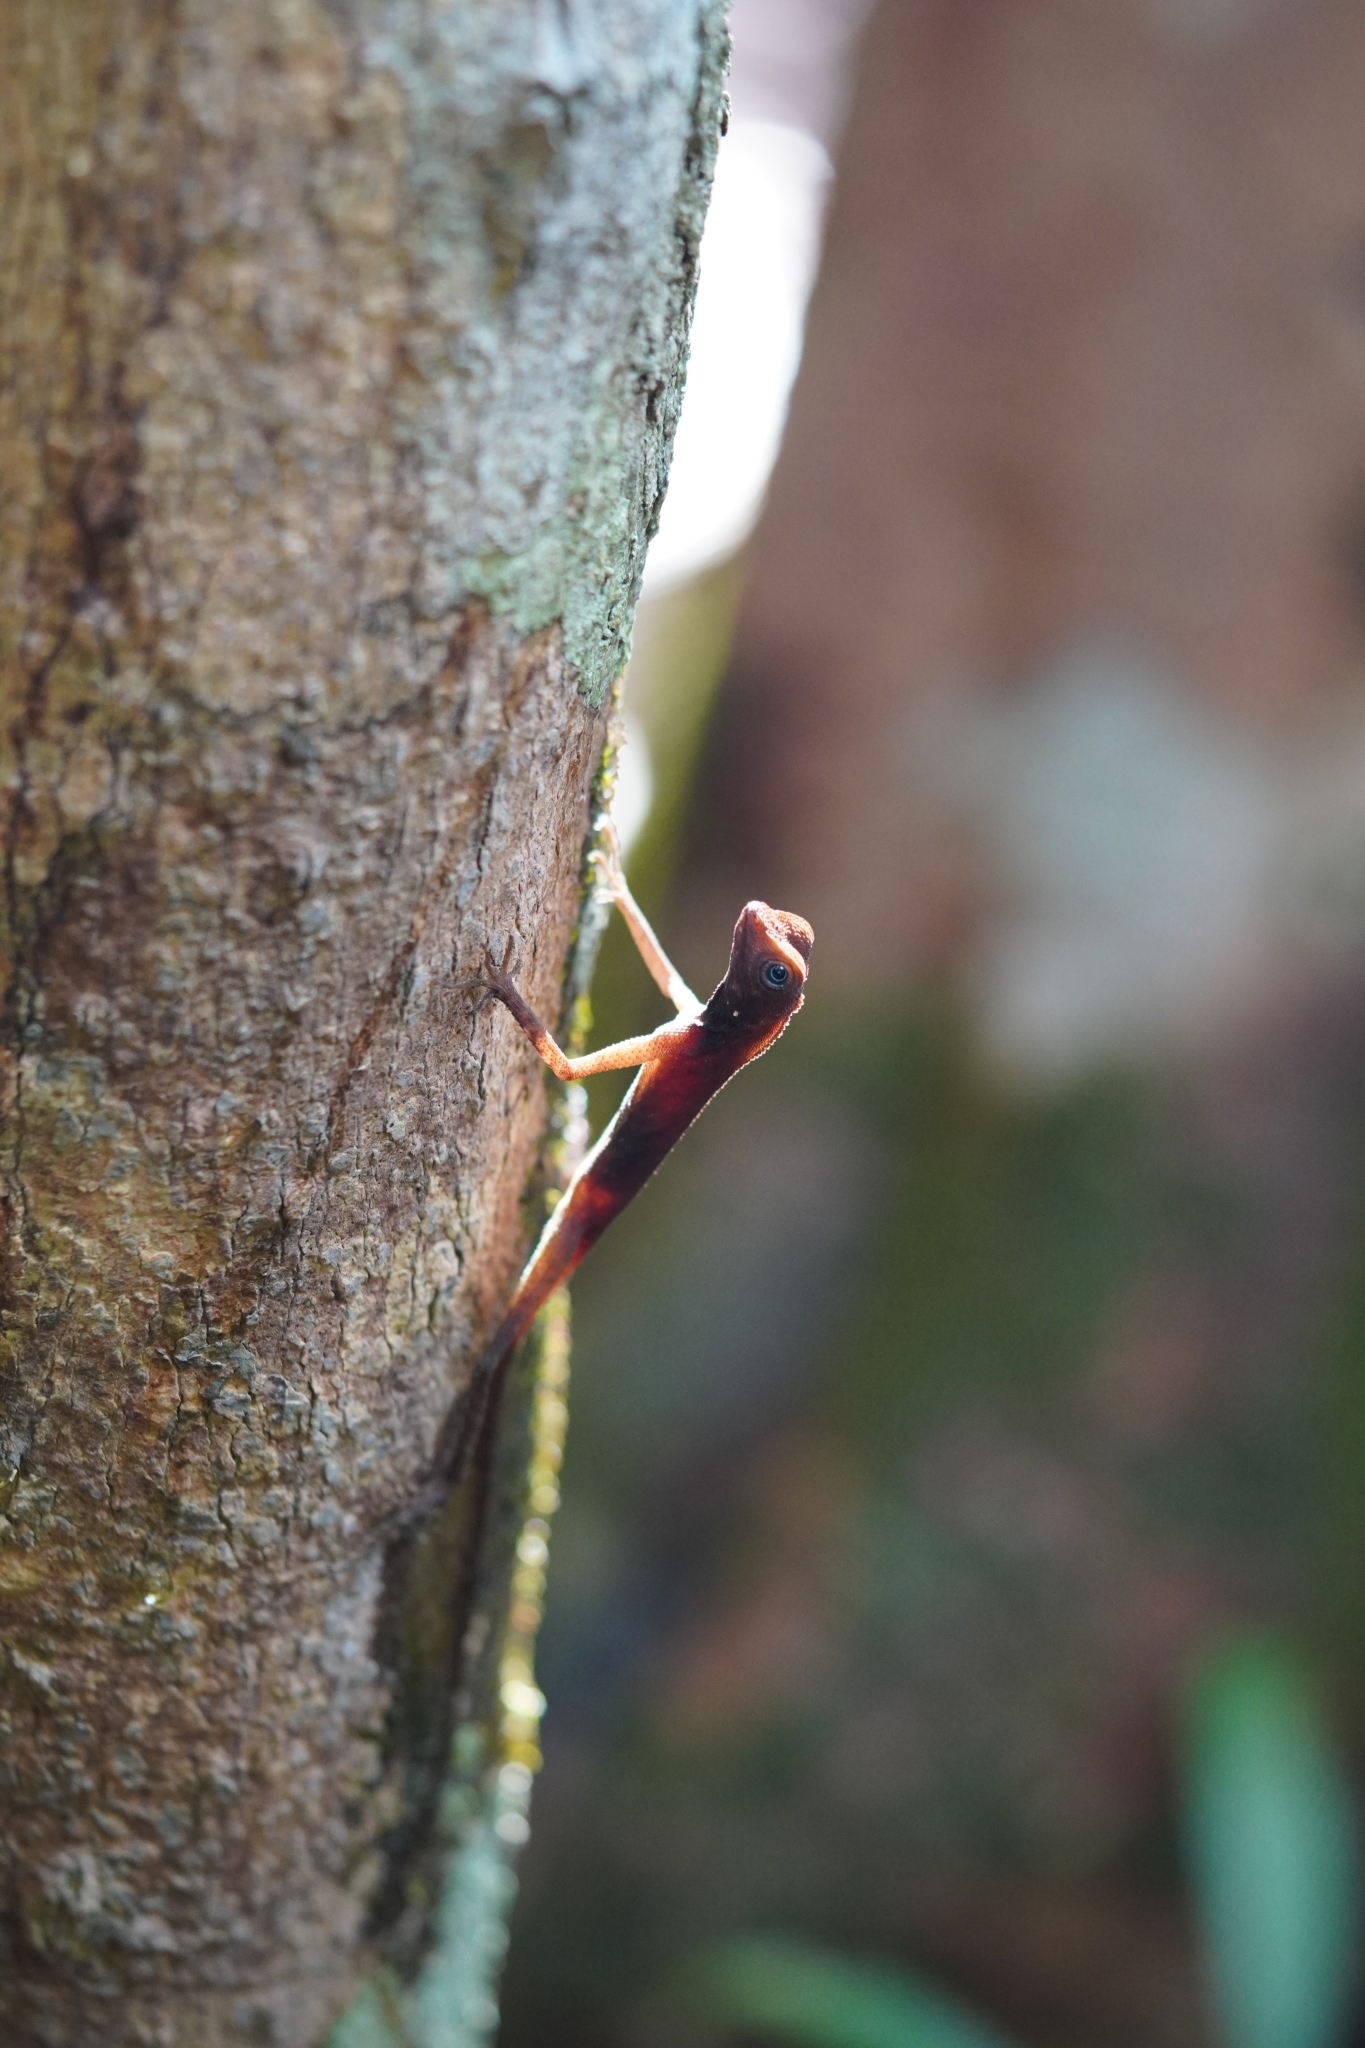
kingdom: Animalia
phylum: Chordata
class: Squamata
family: Agamidae
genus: Aphaniotis
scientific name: Aphaniotis fusca
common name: Dusky earless agama
